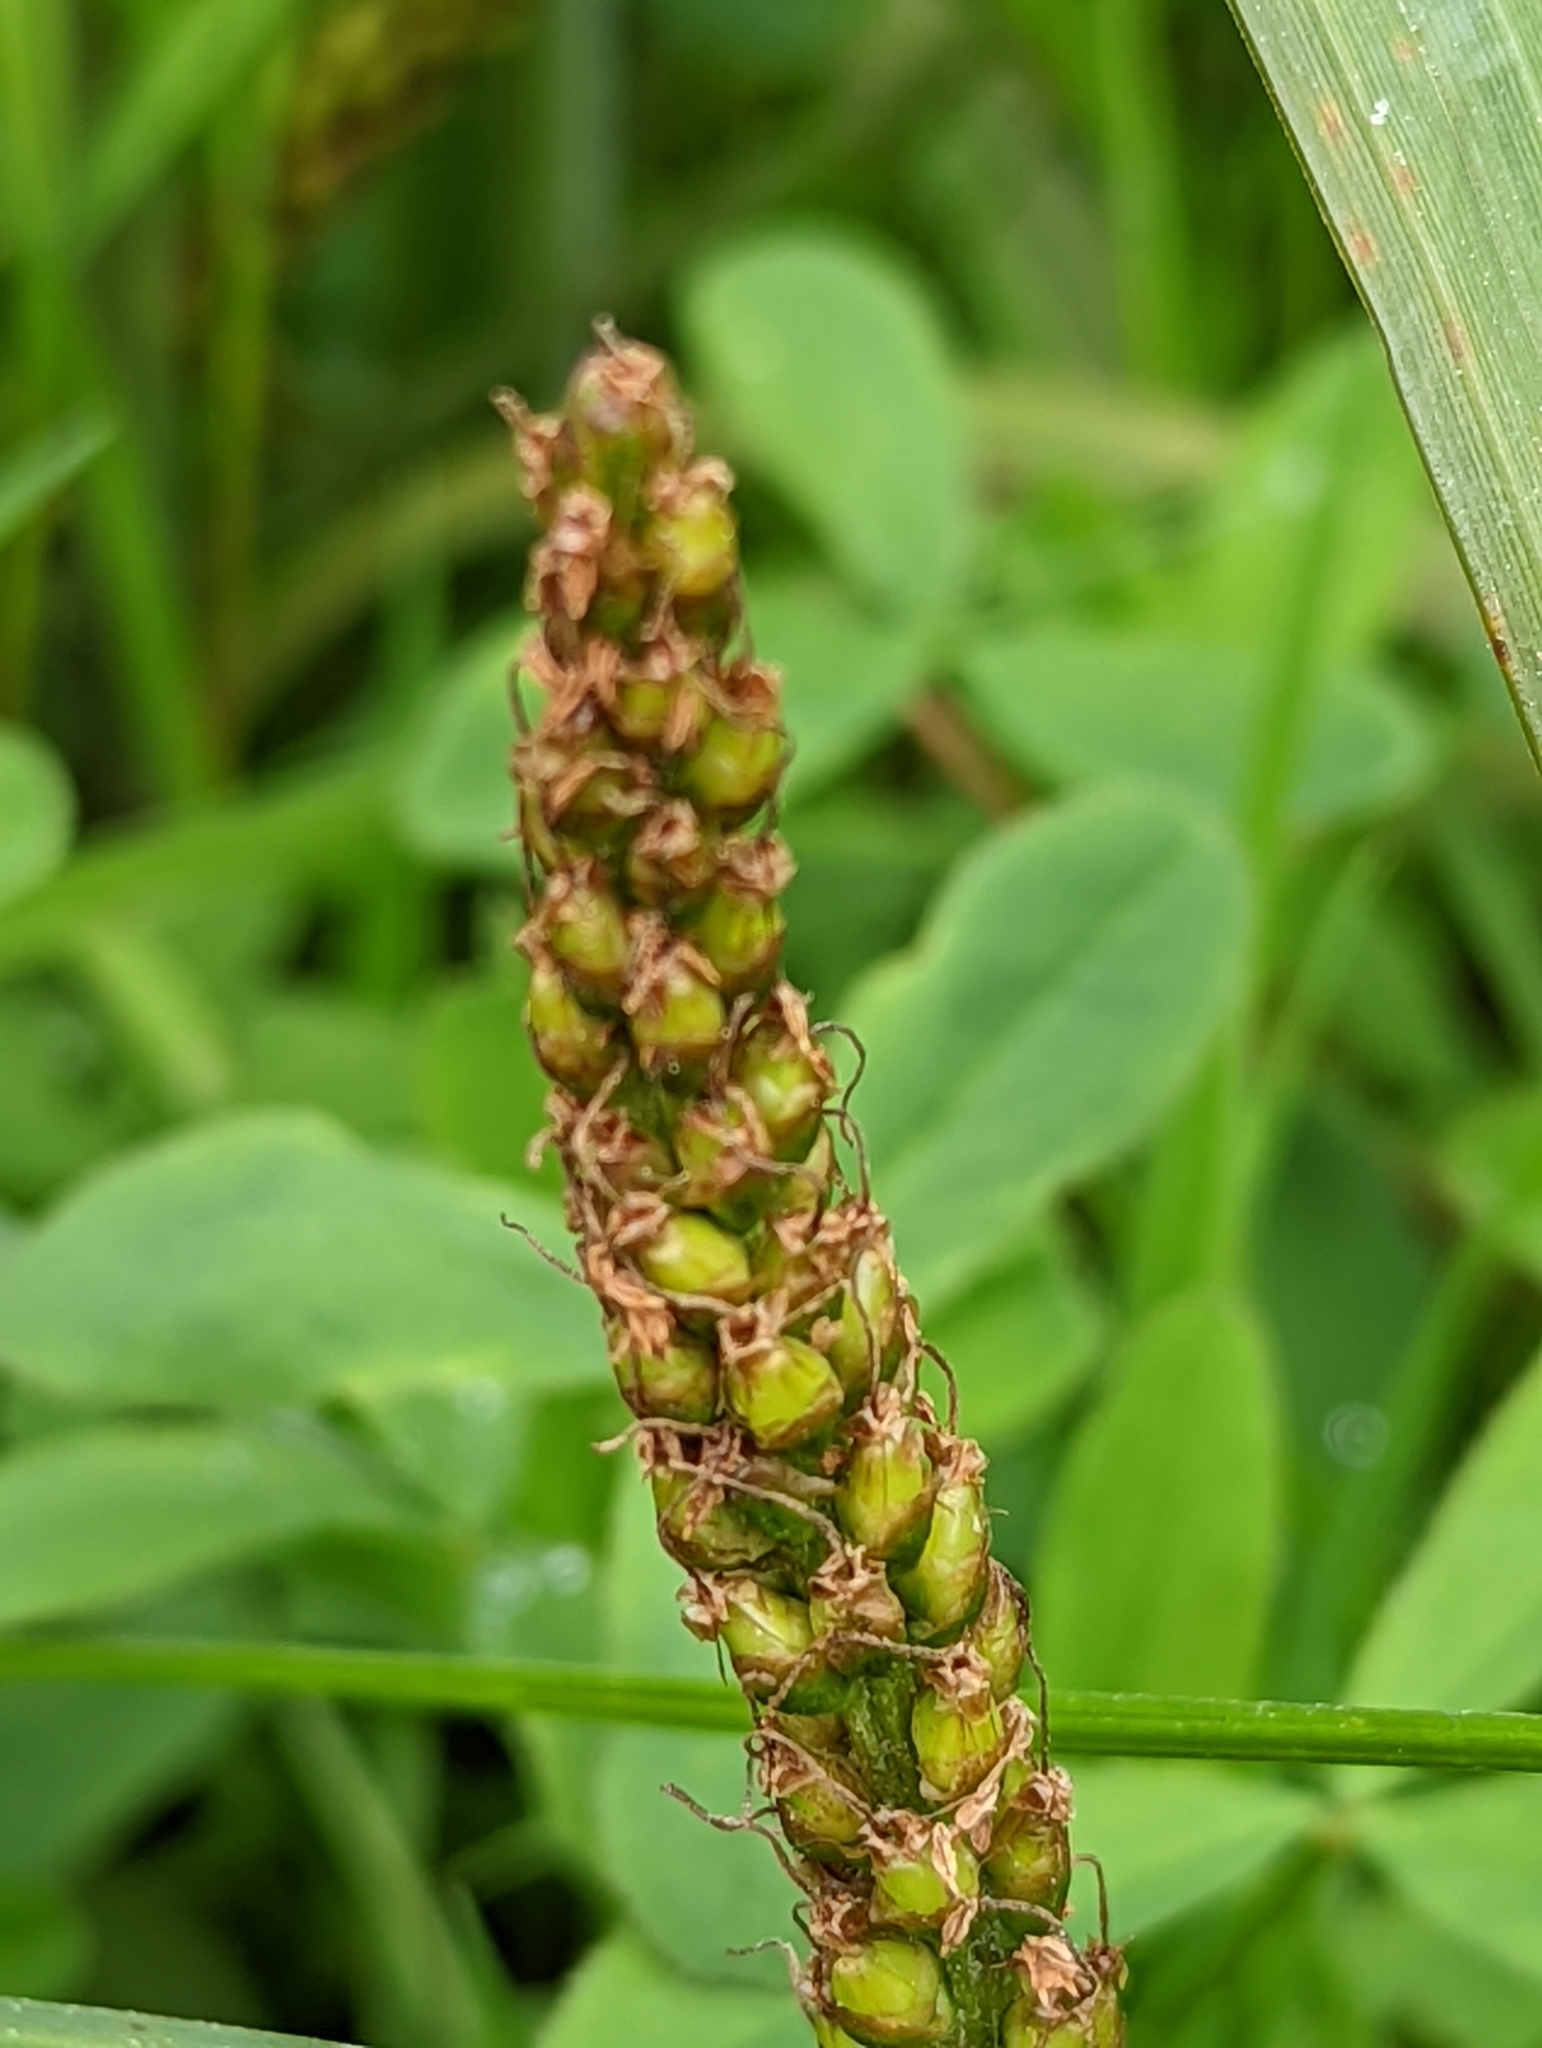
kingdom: Plantae
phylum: Tracheophyta
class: Magnoliopsida
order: Lamiales
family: Plantaginaceae
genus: Plantago
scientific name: Plantago major
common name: Common plantain
